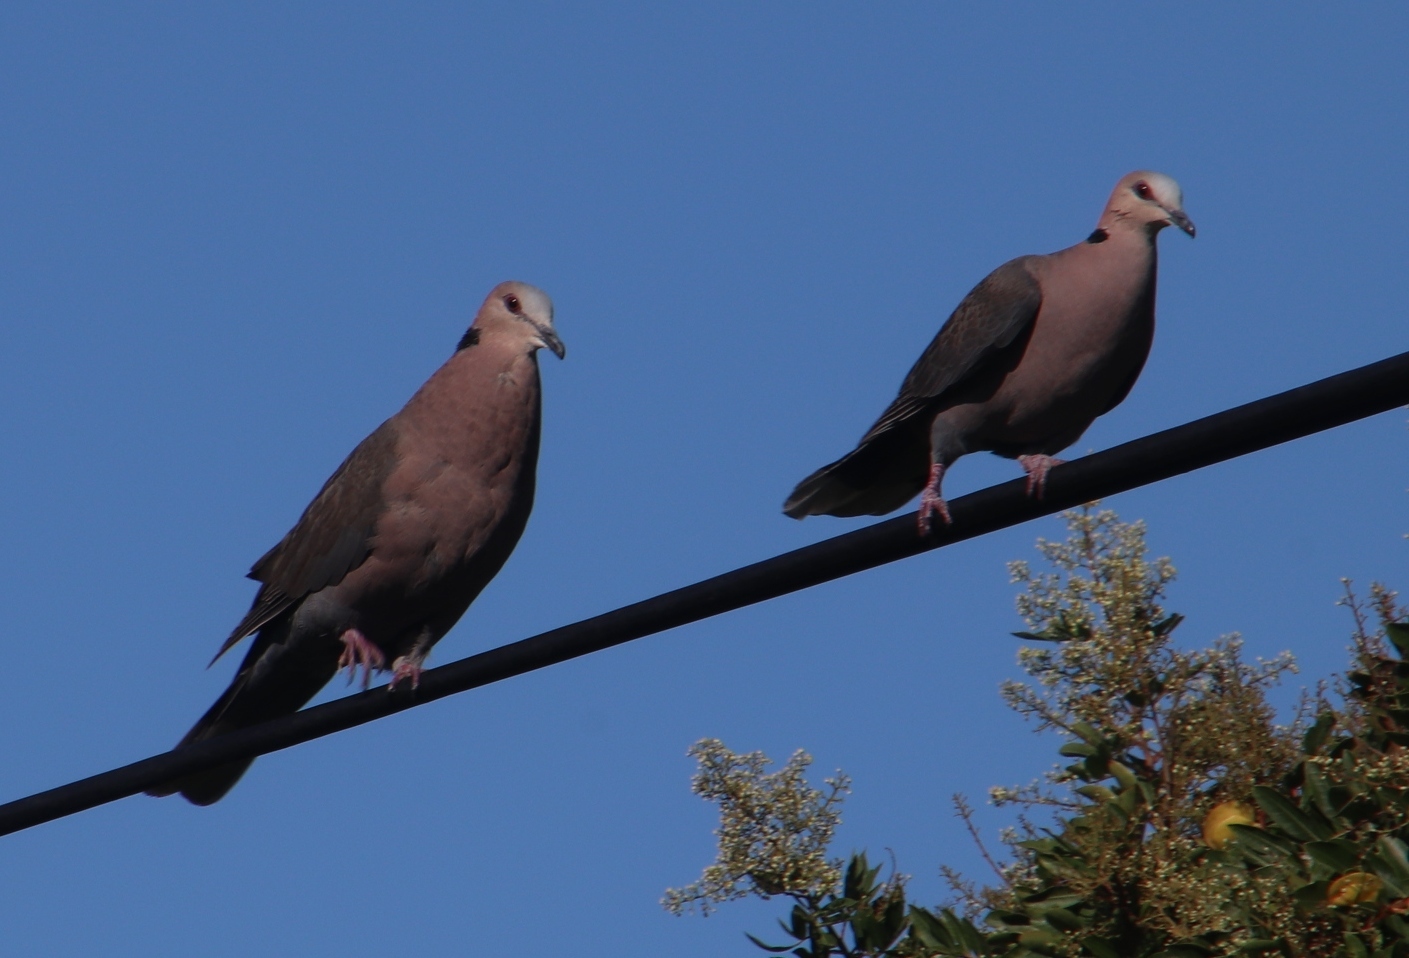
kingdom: Animalia
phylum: Chordata
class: Aves
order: Columbiformes
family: Columbidae
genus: Streptopelia
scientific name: Streptopelia semitorquata
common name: Red-eyed dove
